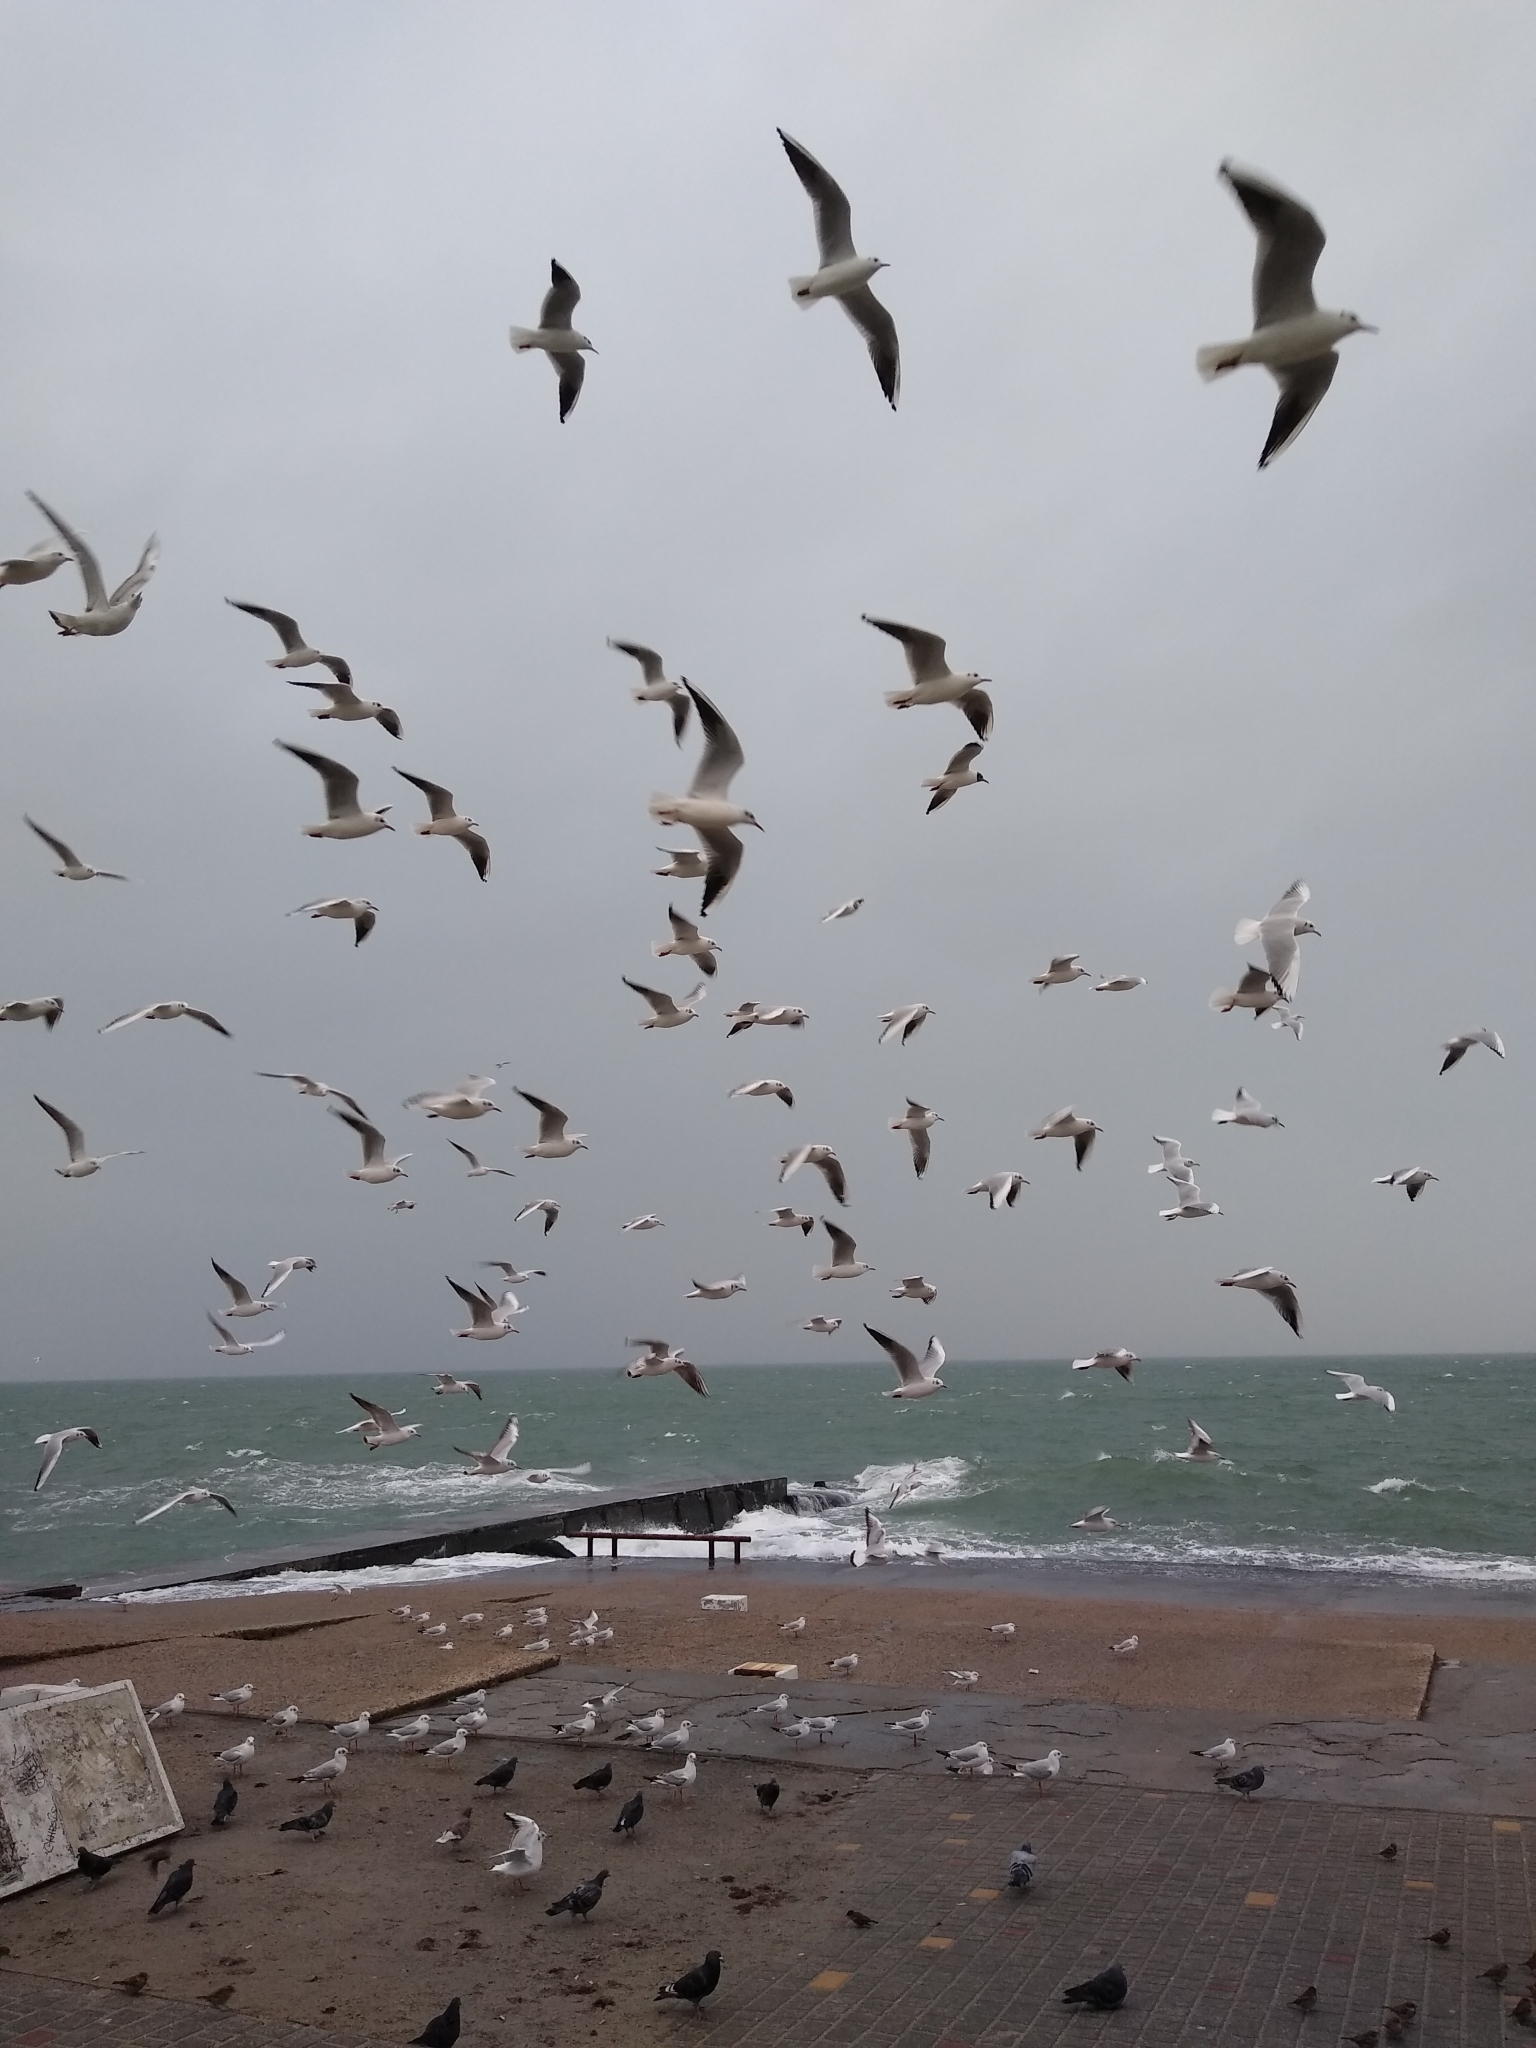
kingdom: Animalia
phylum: Chordata
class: Aves
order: Charadriiformes
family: Laridae
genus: Chroicocephalus
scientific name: Chroicocephalus ridibundus
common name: Black-headed gull
